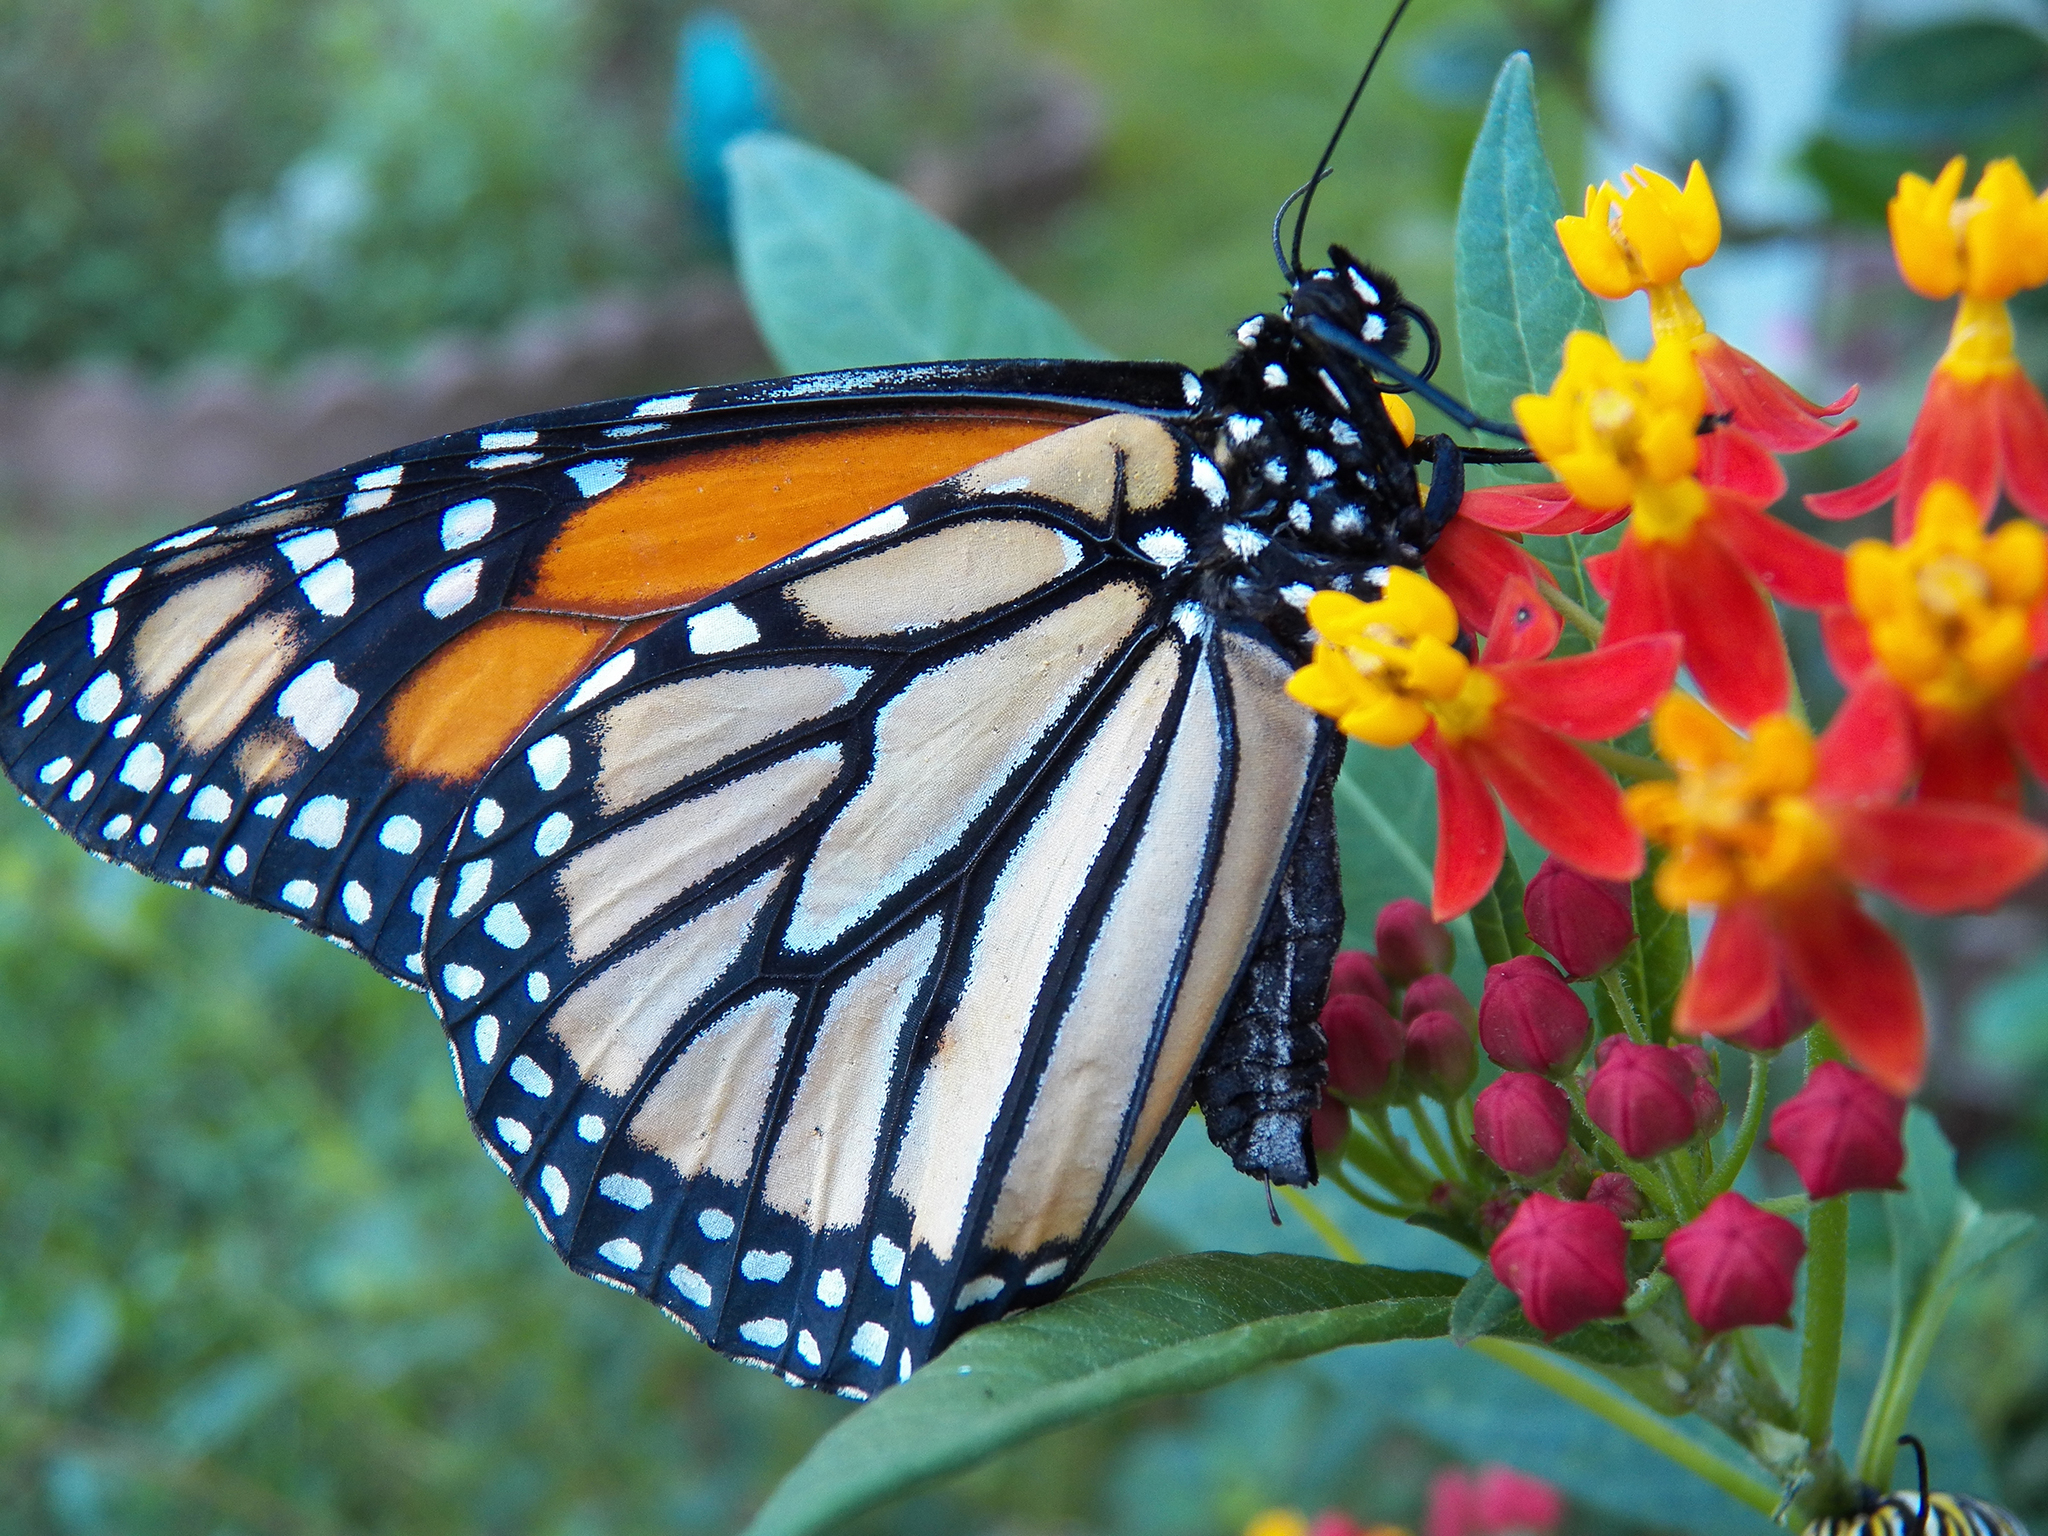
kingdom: Animalia
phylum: Arthropoda
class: Insecta
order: Lepidoptera
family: Nymphalidae
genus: Danaus
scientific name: Danaus plexippus
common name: Monarch
